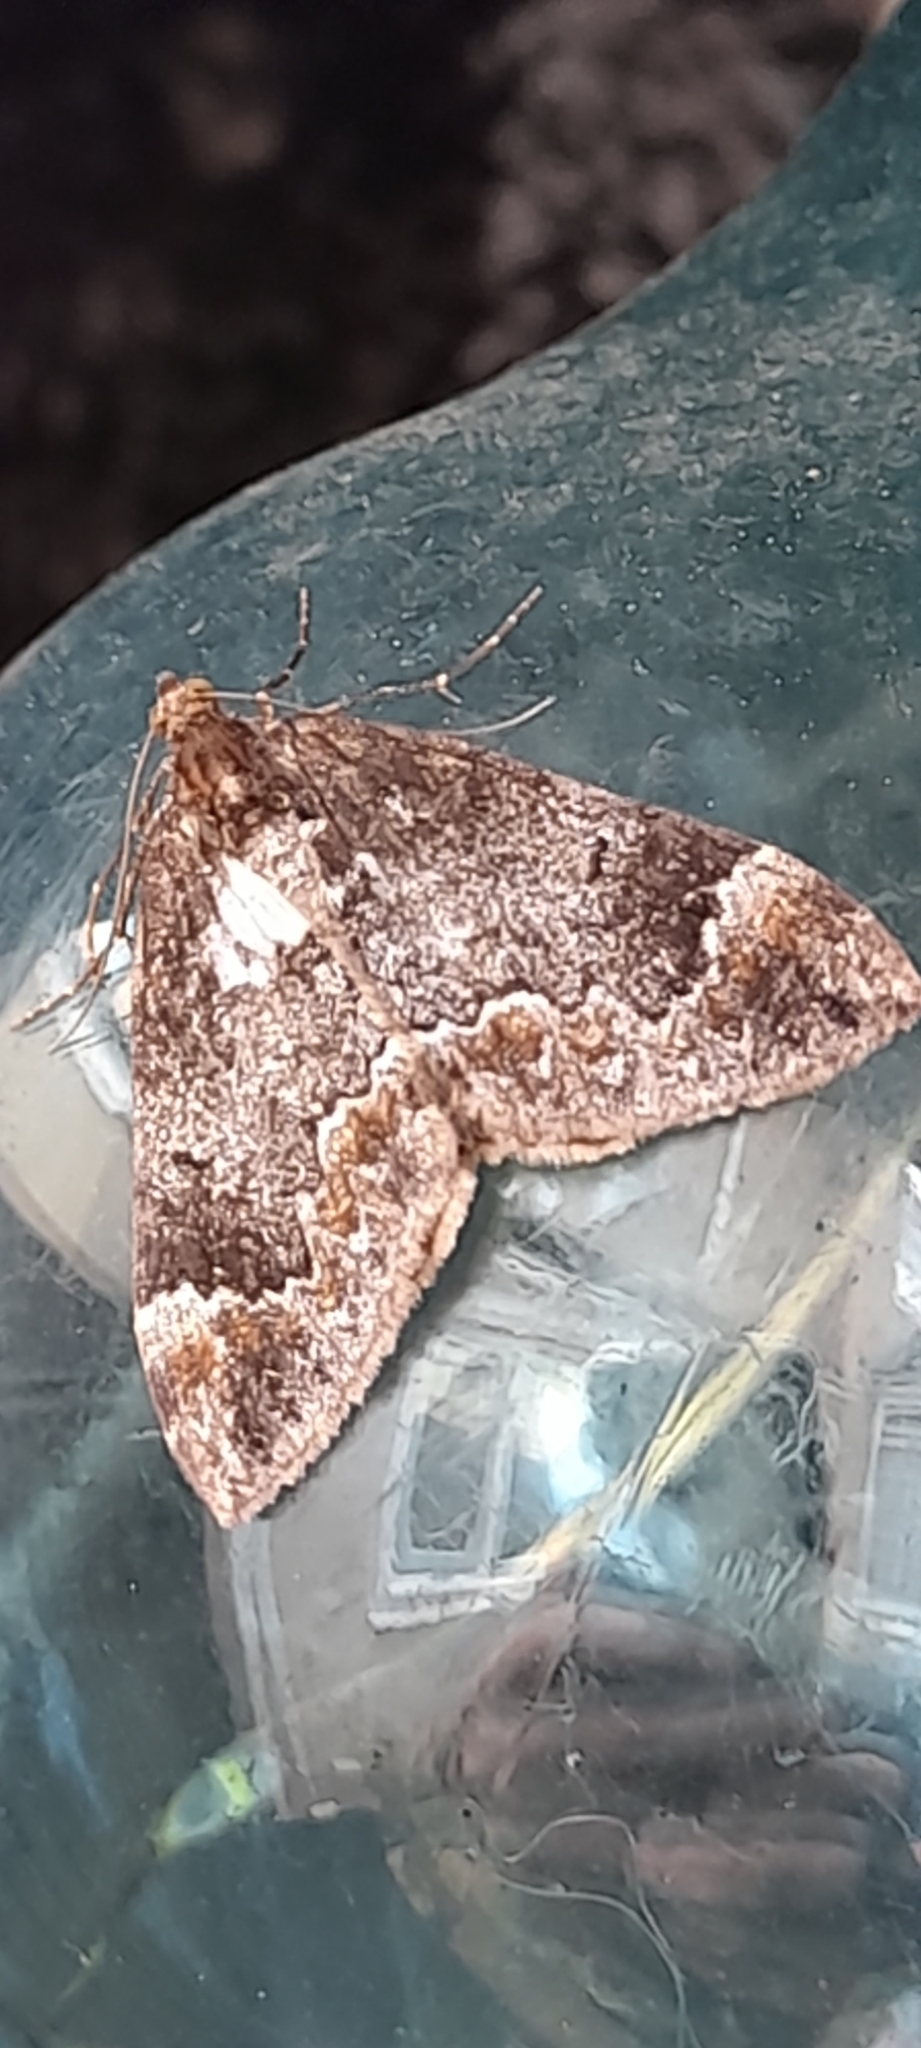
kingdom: Animalia
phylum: Arthropoda
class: Insecta
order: Lepidoptera
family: Geometridae
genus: Dysstroma
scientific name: Dysstroma truncata
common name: Common marbled carpet
